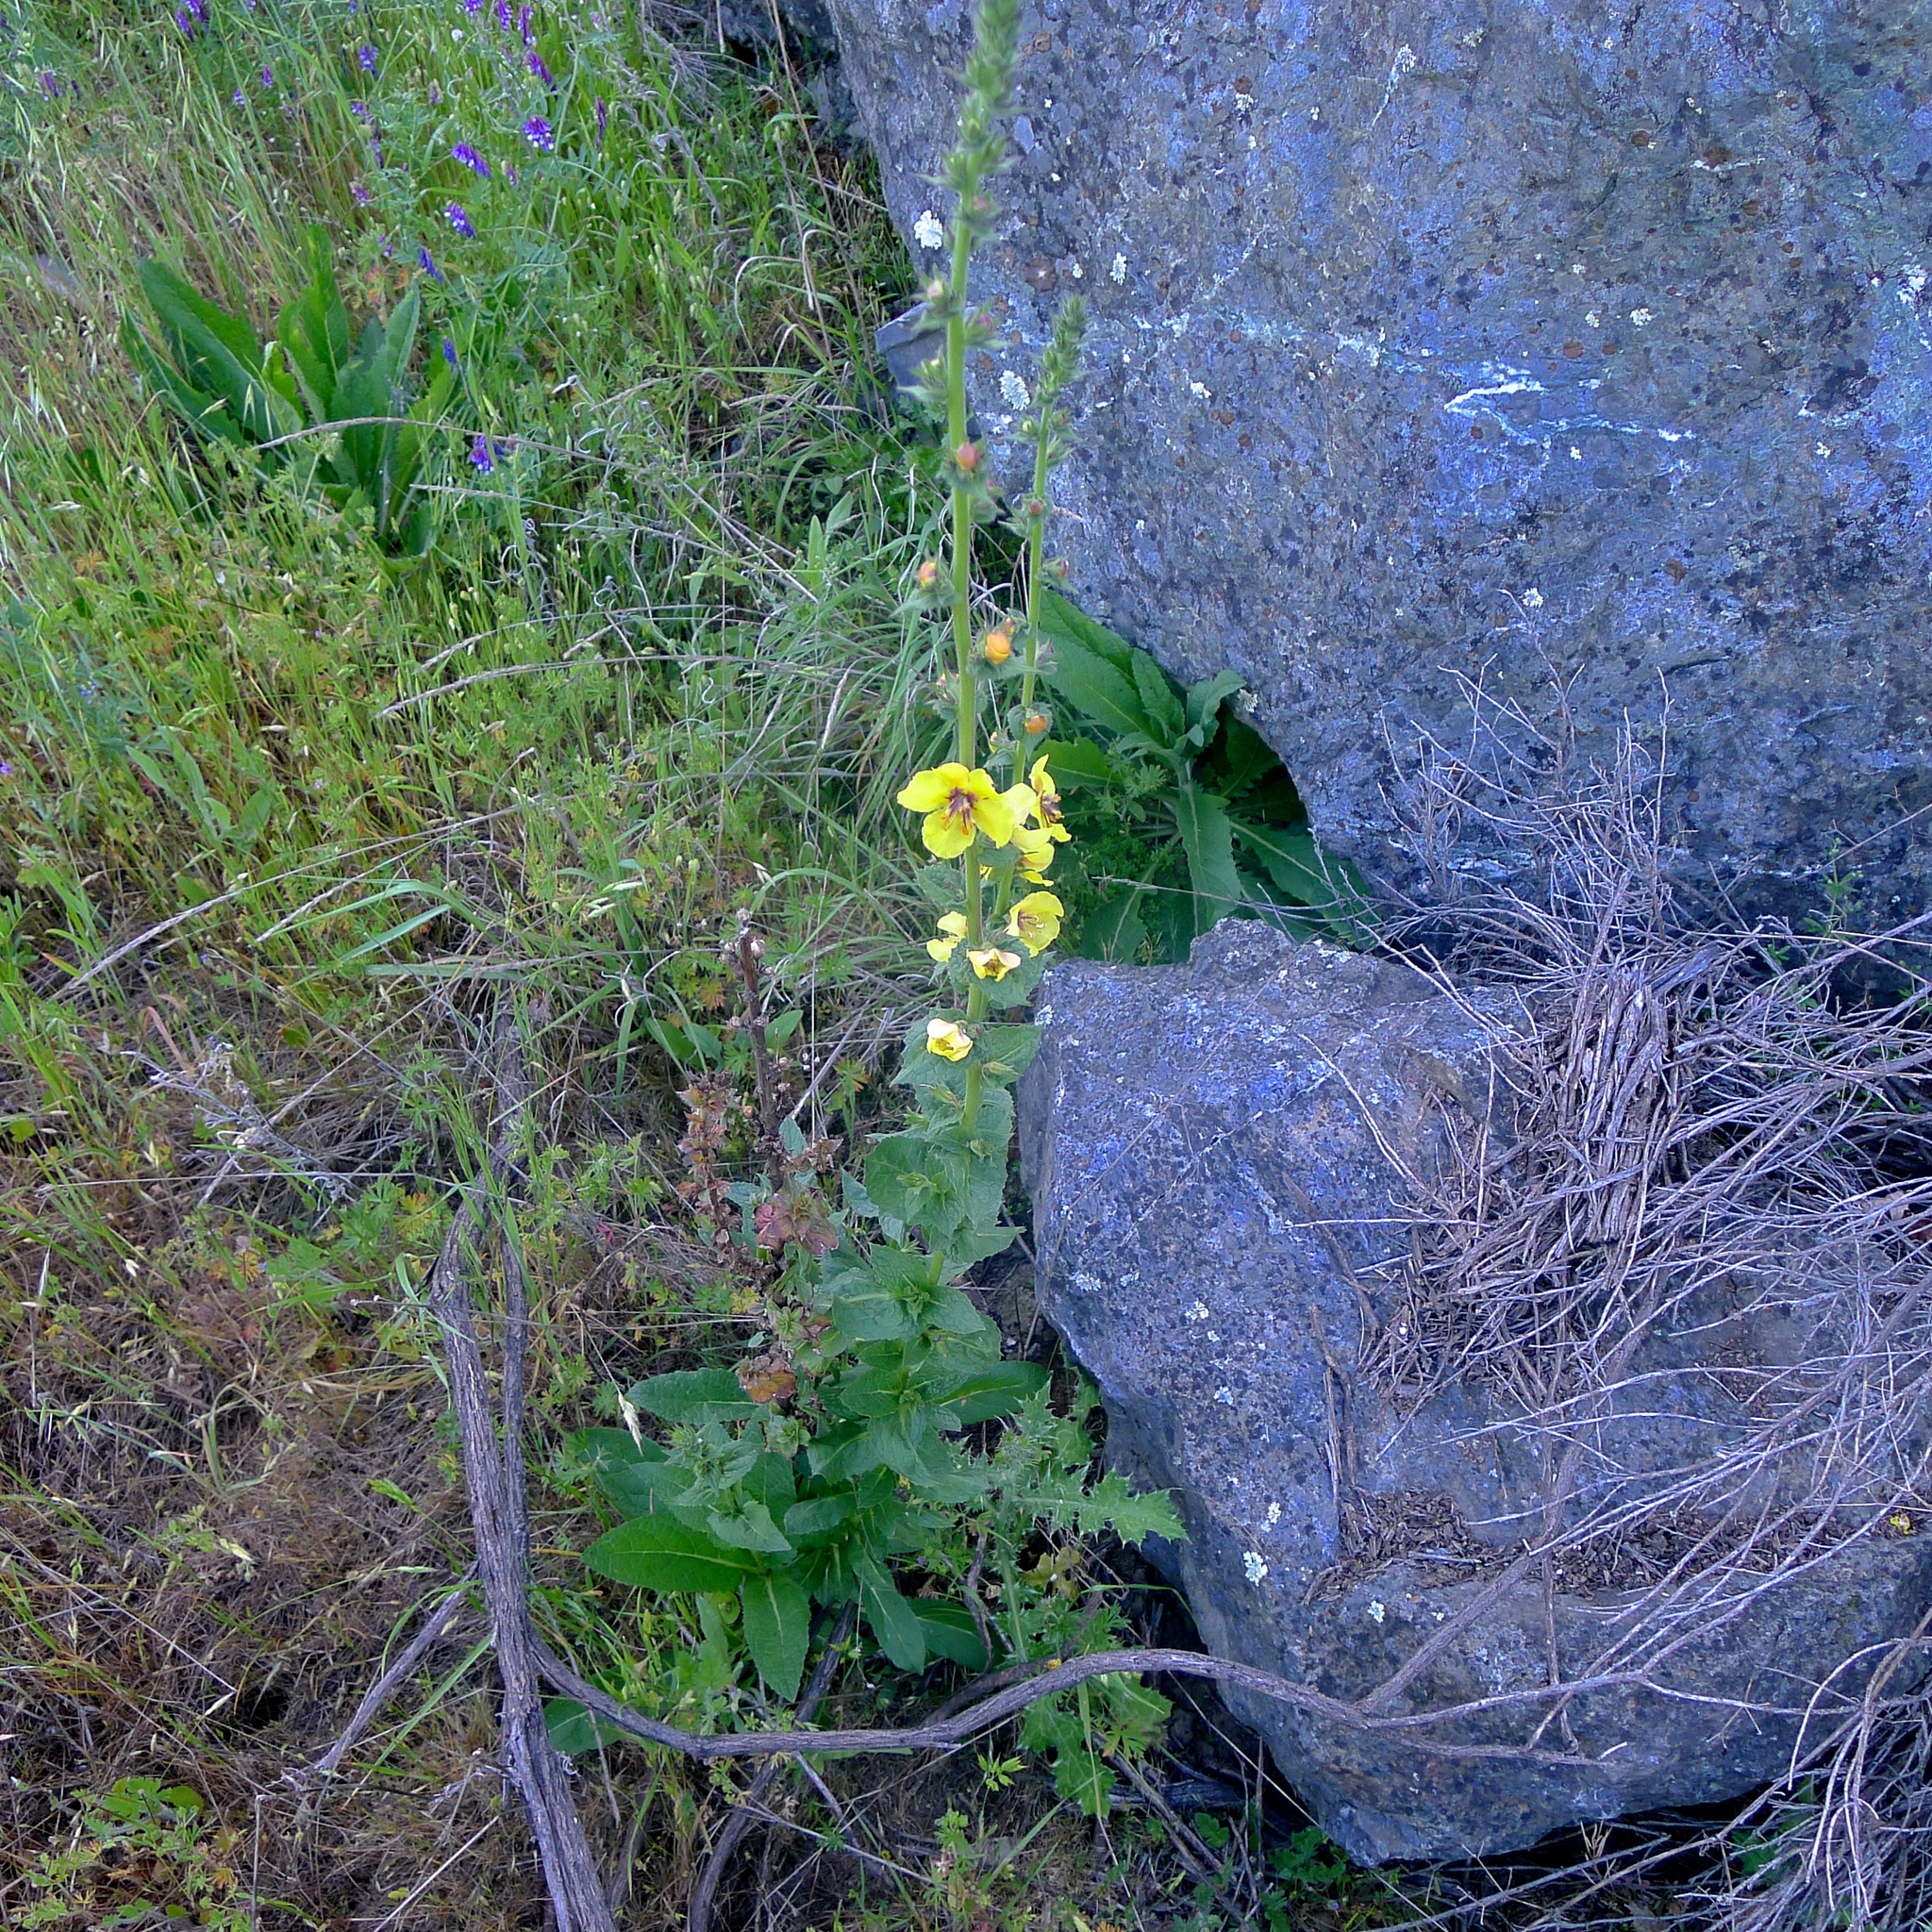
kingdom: Plantae
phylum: Tracheophyta
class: Magnoliopsida
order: Lamiales
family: Scrophulariaceae
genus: Verbascum
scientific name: Verbascum virgatum
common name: Twiggy mullein
